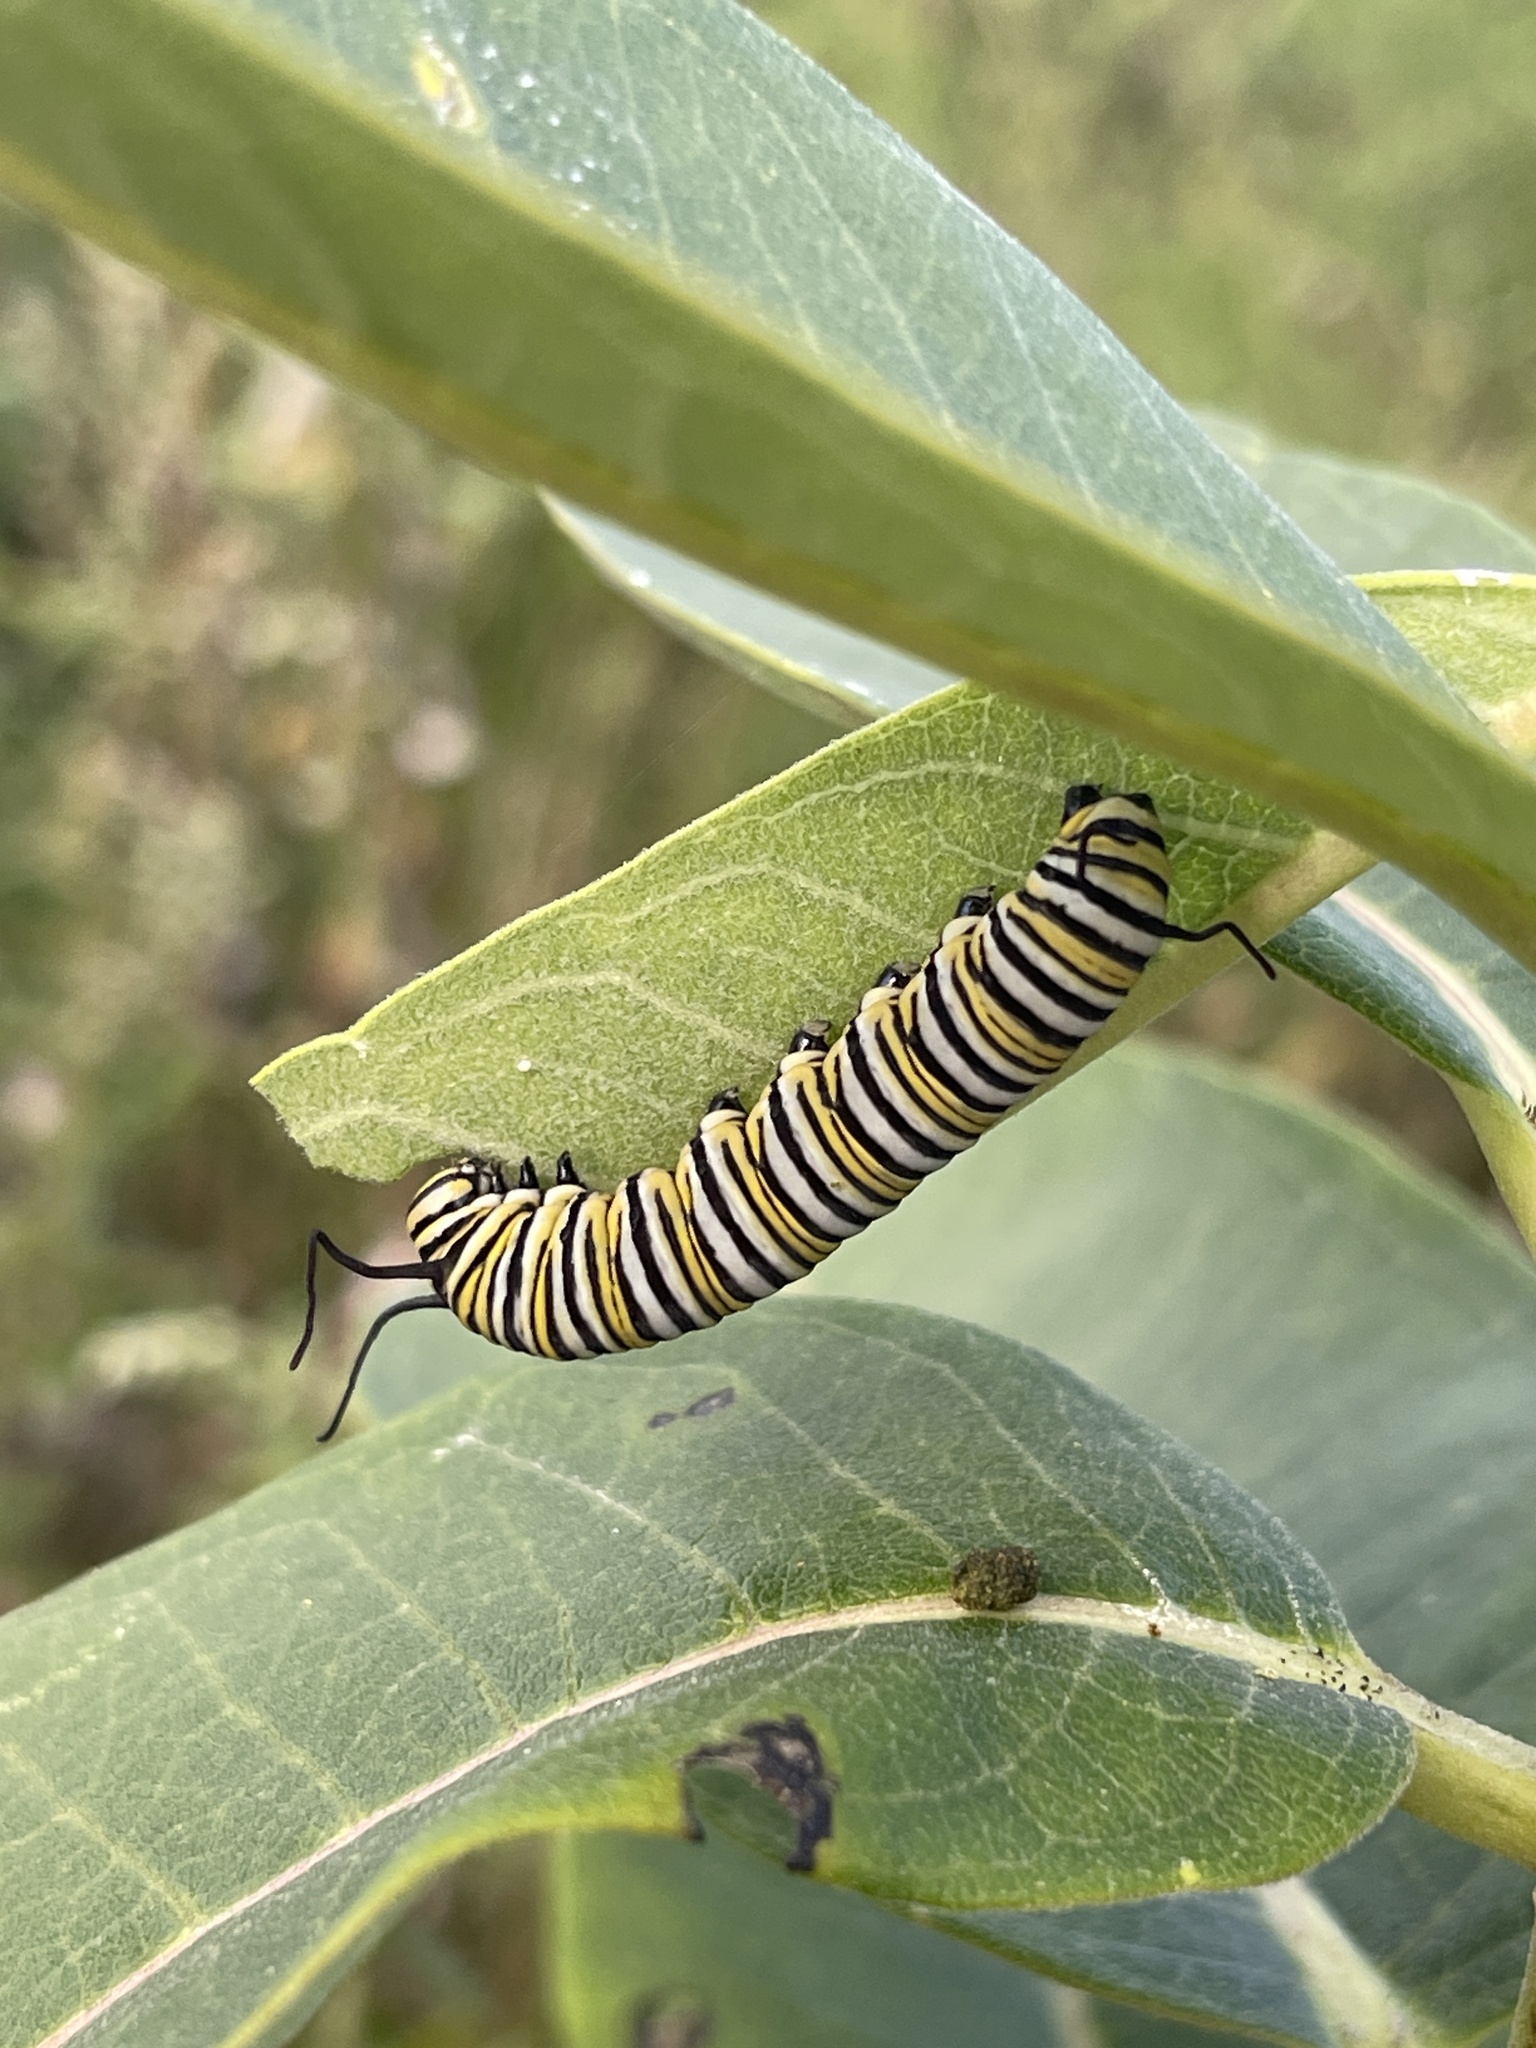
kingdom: Animalia
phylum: Arthropoda
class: Insecta
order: Lepidoptera
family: Nymphalidae
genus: Danaus
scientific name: Danaus plexippus
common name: Monarch
